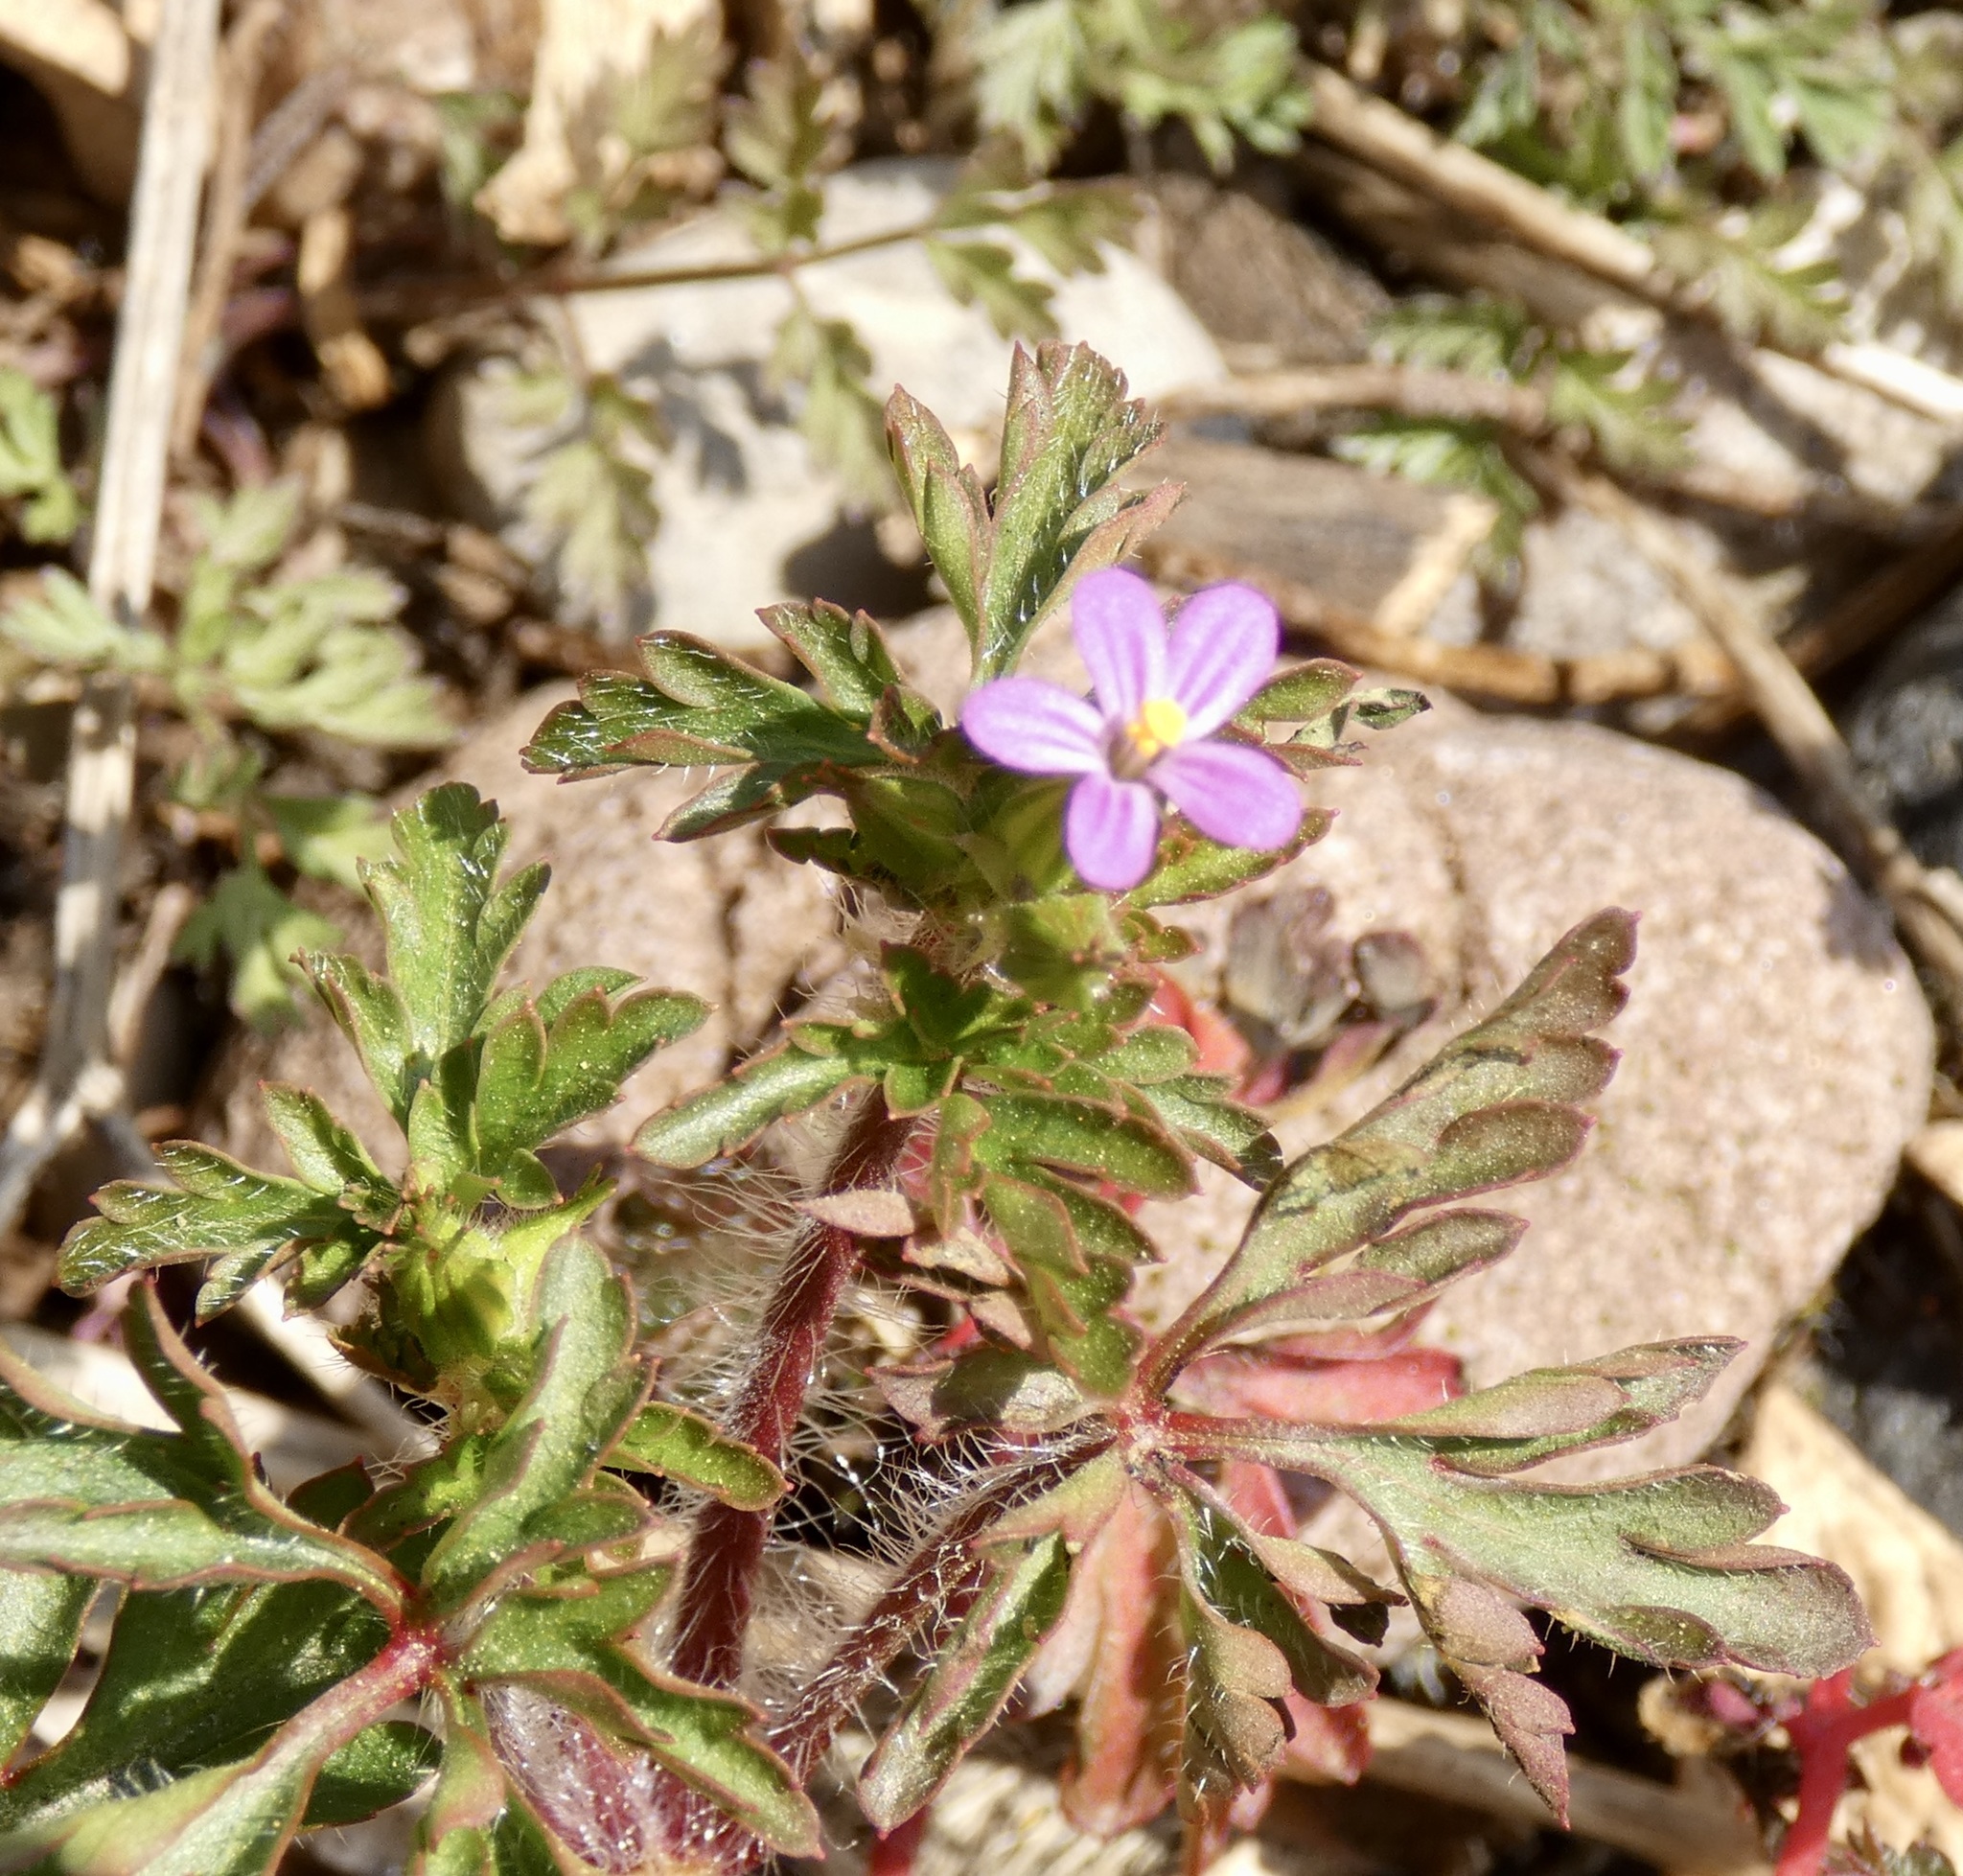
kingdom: Plantae
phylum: Tracheophyta
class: Magnoliopsida
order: Geraniales
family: Geraniaceae
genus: Geranium
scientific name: Geranium purpureum
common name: Little-robin
